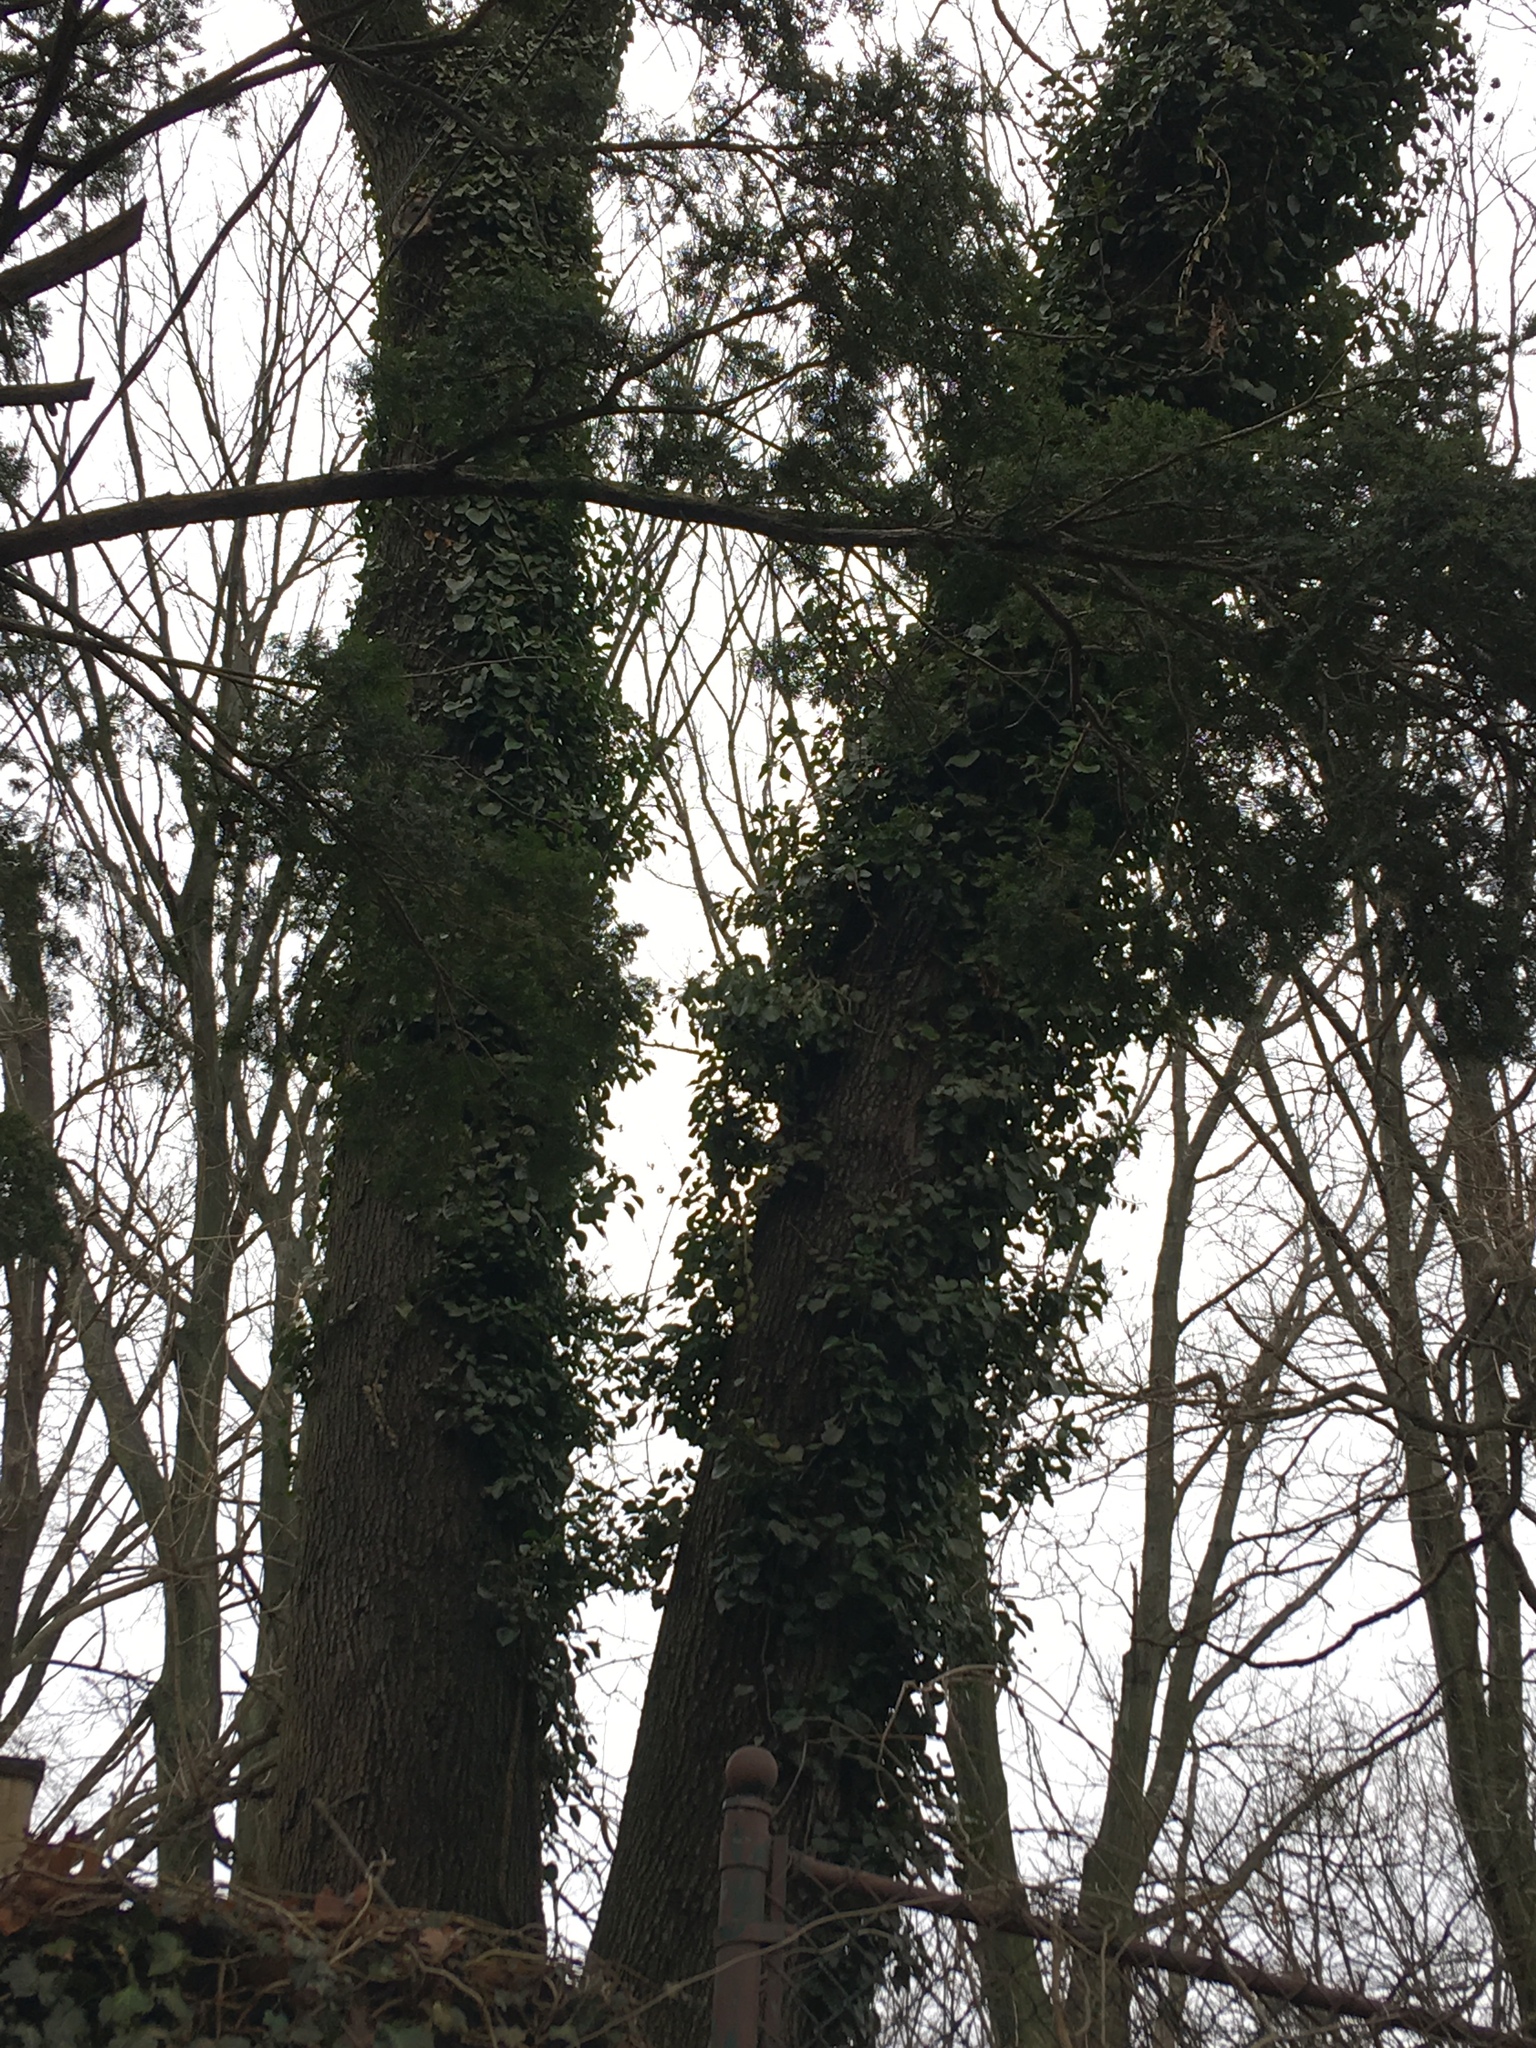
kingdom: Plantae
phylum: Tracheophyta
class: Magnoliopsida
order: Apiales
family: Araliaceae
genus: Hedera
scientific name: Hedera helix
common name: Ivy
